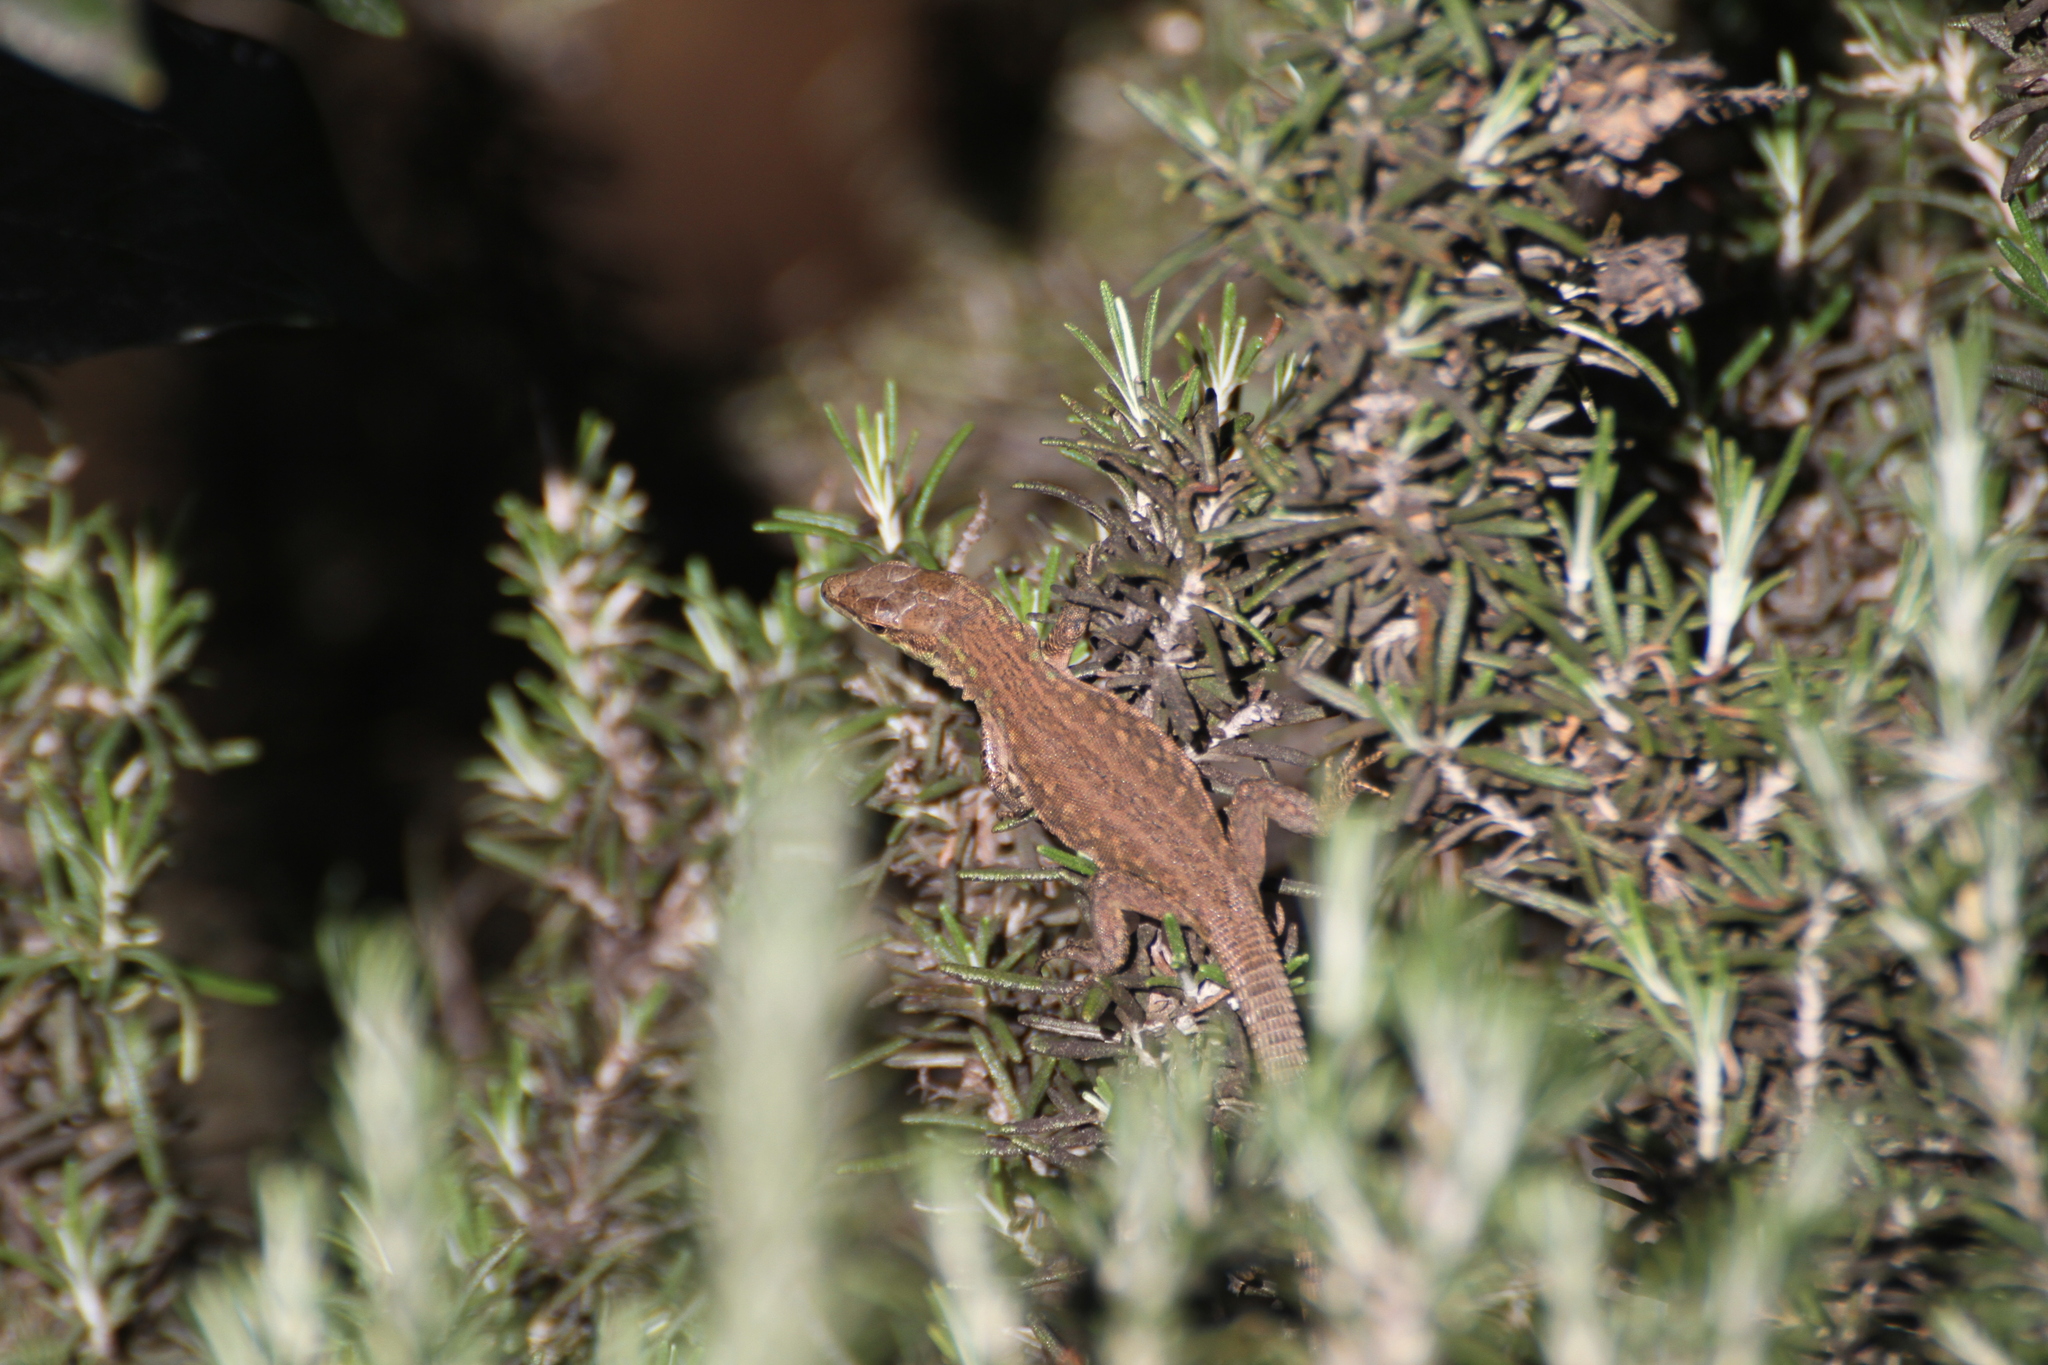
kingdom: Animalia
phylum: Chordata
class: Squamata
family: Lacertidae
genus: Podarcis
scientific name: Podarcis siculus
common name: Italian wall lizard
